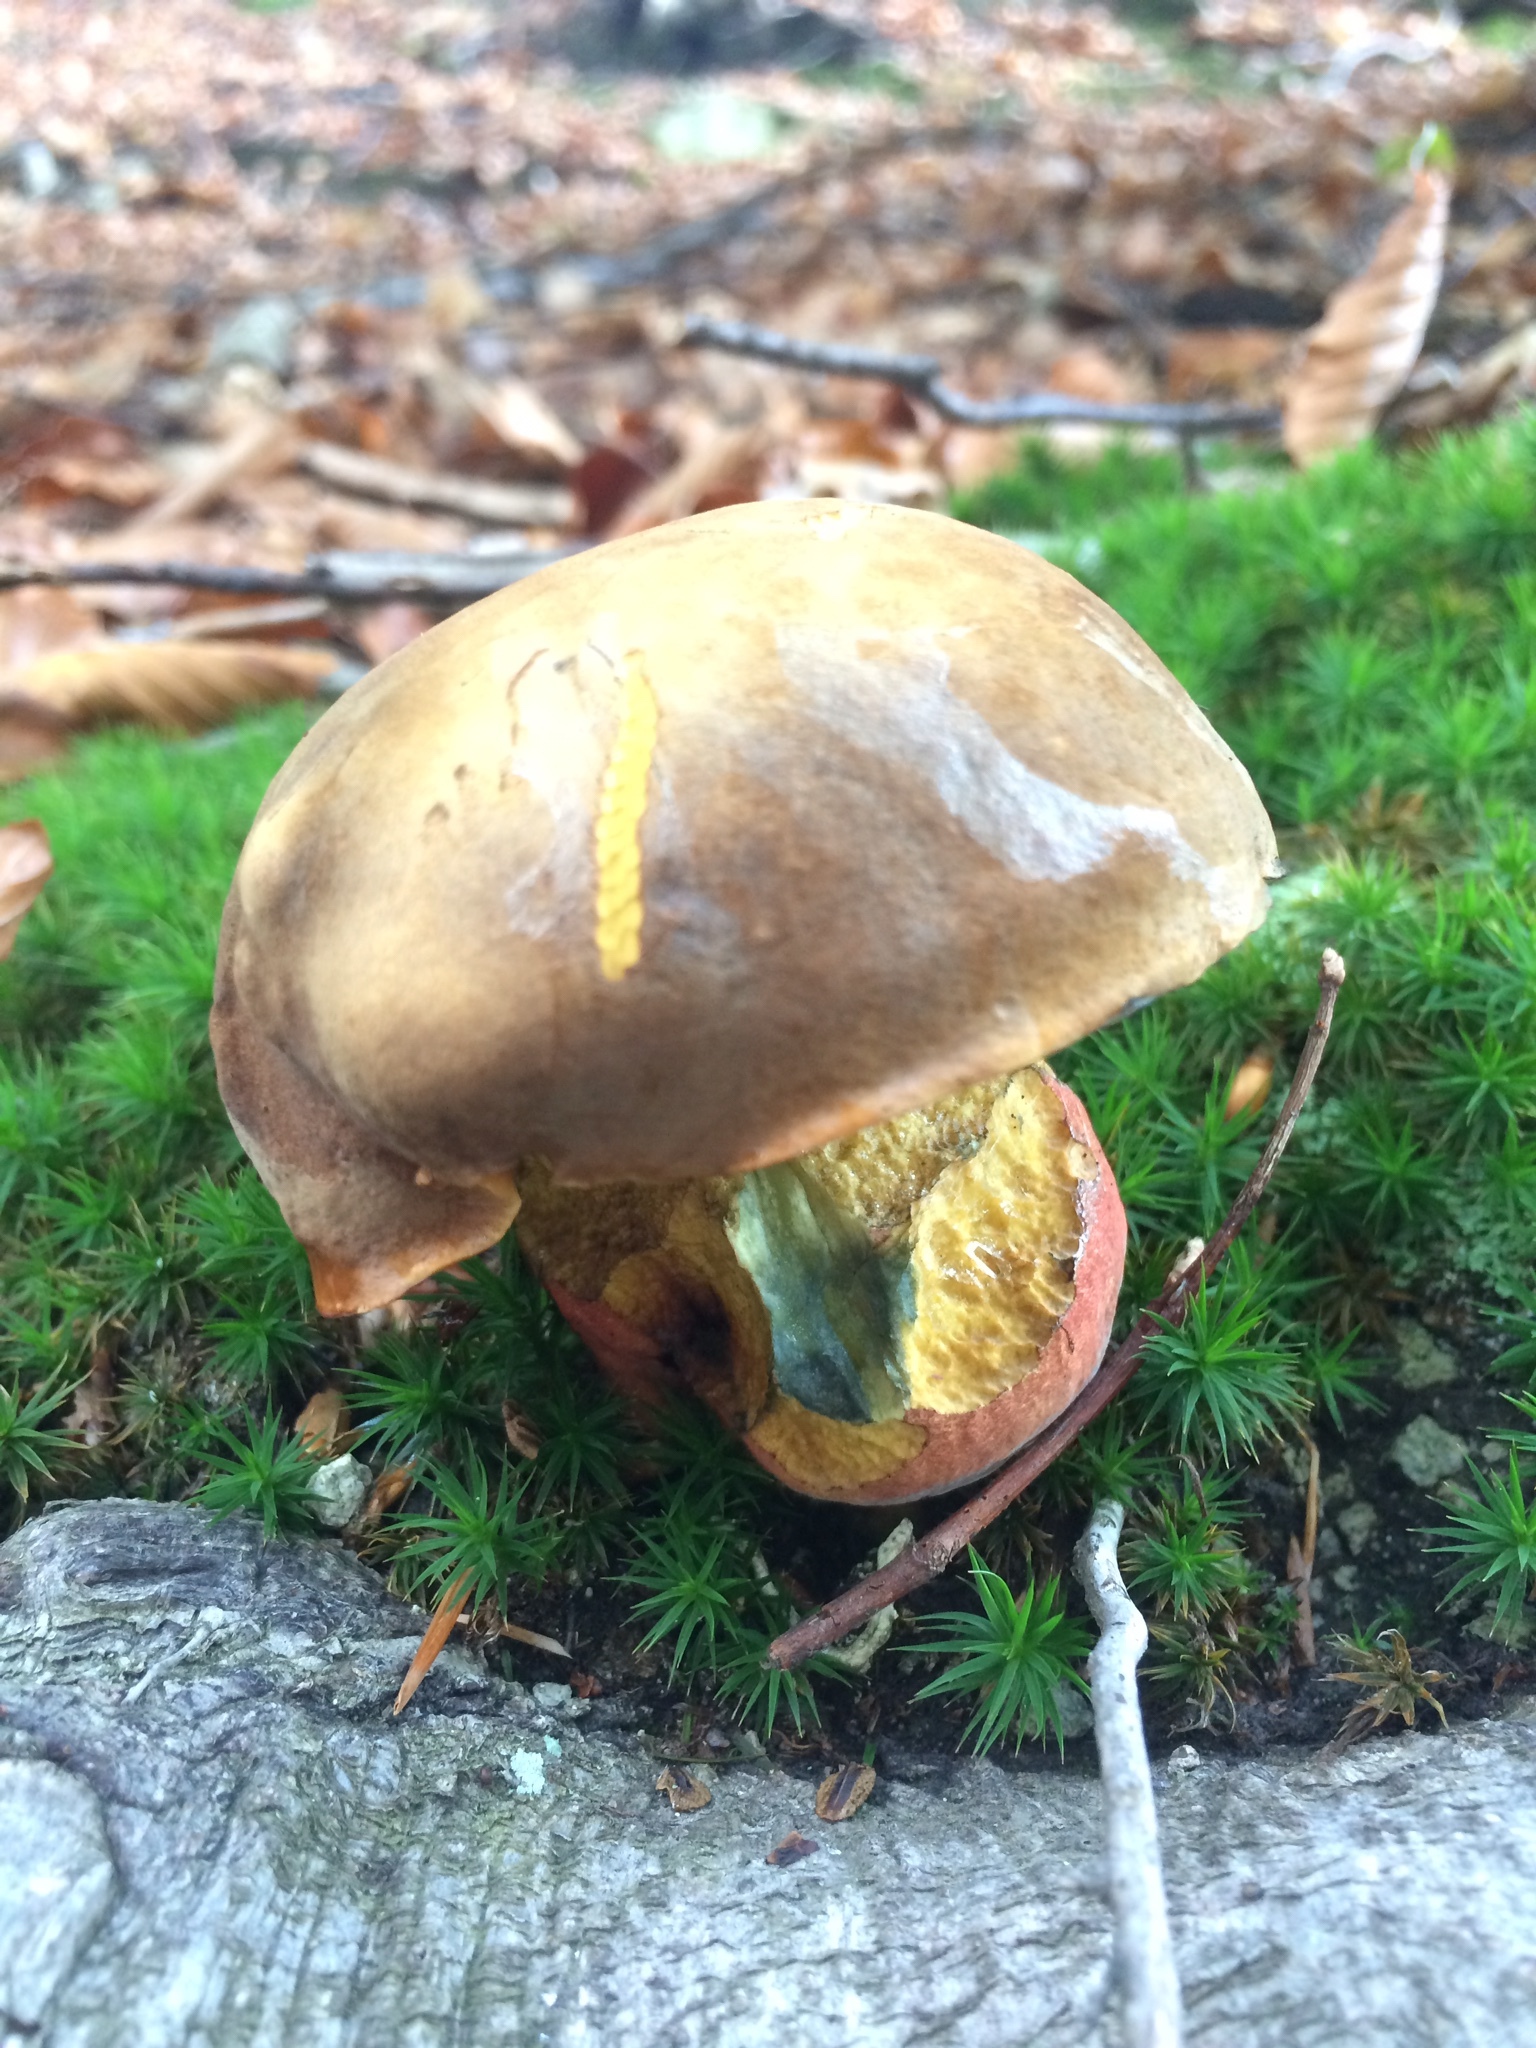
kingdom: Fungi
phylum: Basidiomycota
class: Agaricomycetes
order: Boletales
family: Boletaceae
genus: Neoboletus
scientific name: Neoboletus erythropus
